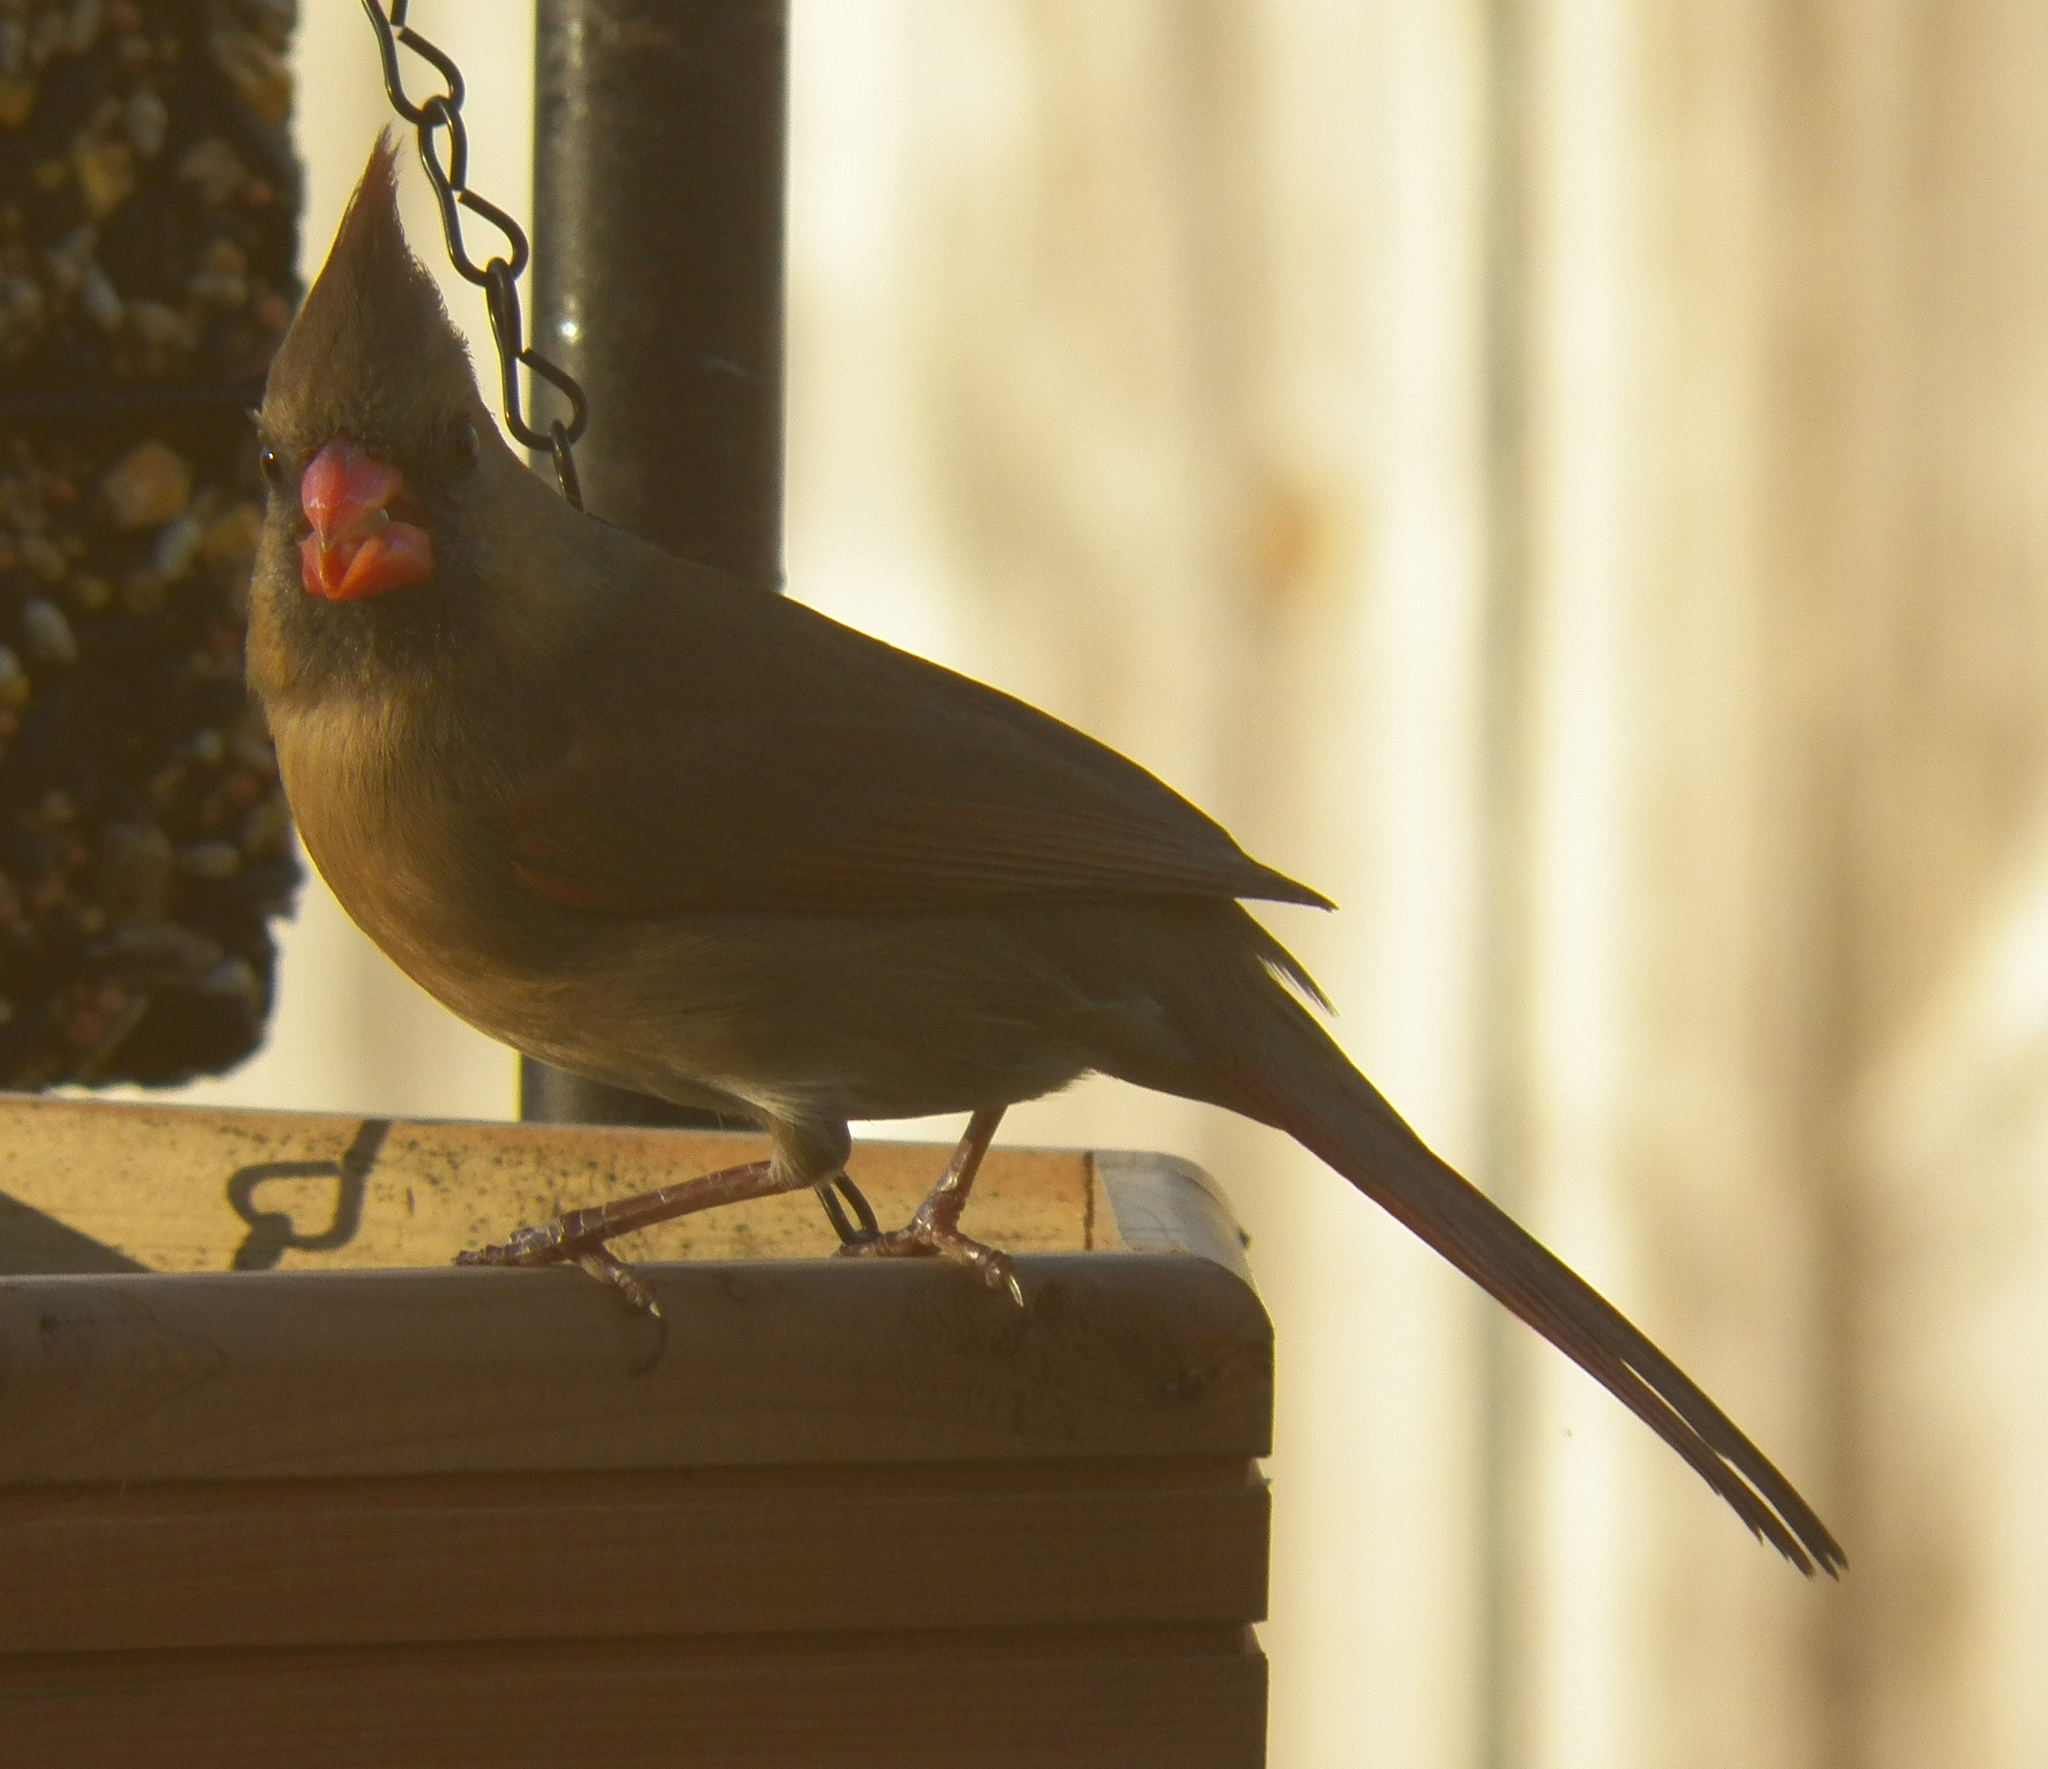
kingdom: Animalia
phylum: Chordata
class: Aves
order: Passeriformes
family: Cardinalidae
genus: Cardinalis
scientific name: Cardinalis cardinalis
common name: Northern cardinal
